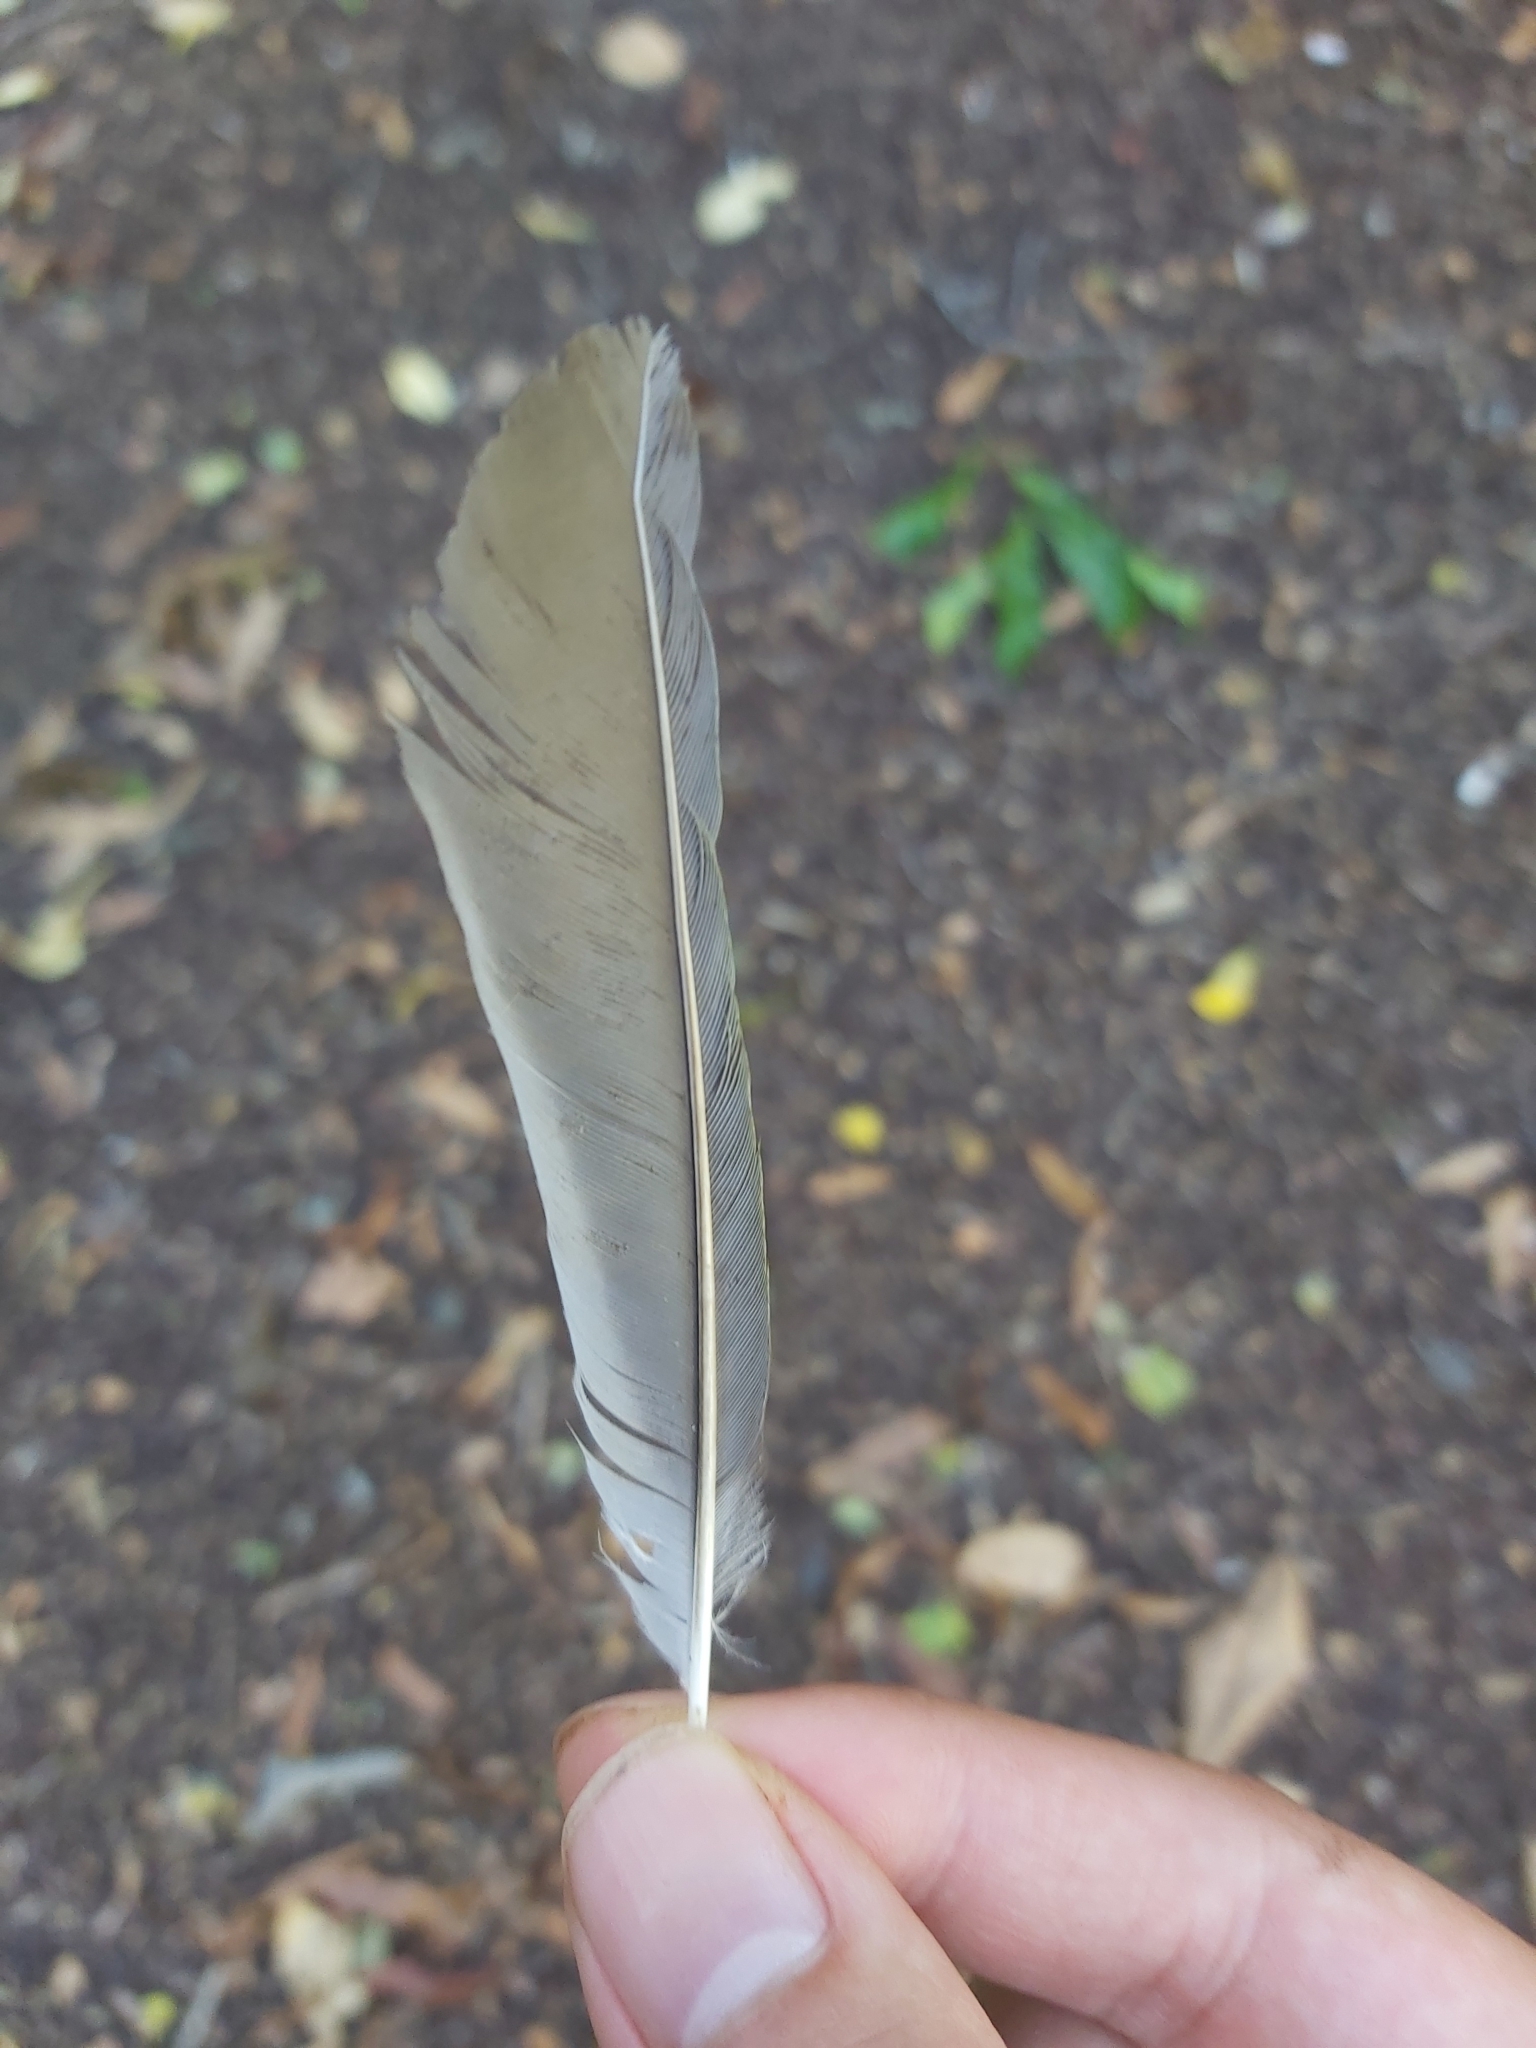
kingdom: Animalia
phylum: Chordata
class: Aves
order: Passeriformes
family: Meliphagidae
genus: Manorina
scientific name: Manorina melanocephala
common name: Noisy miner
